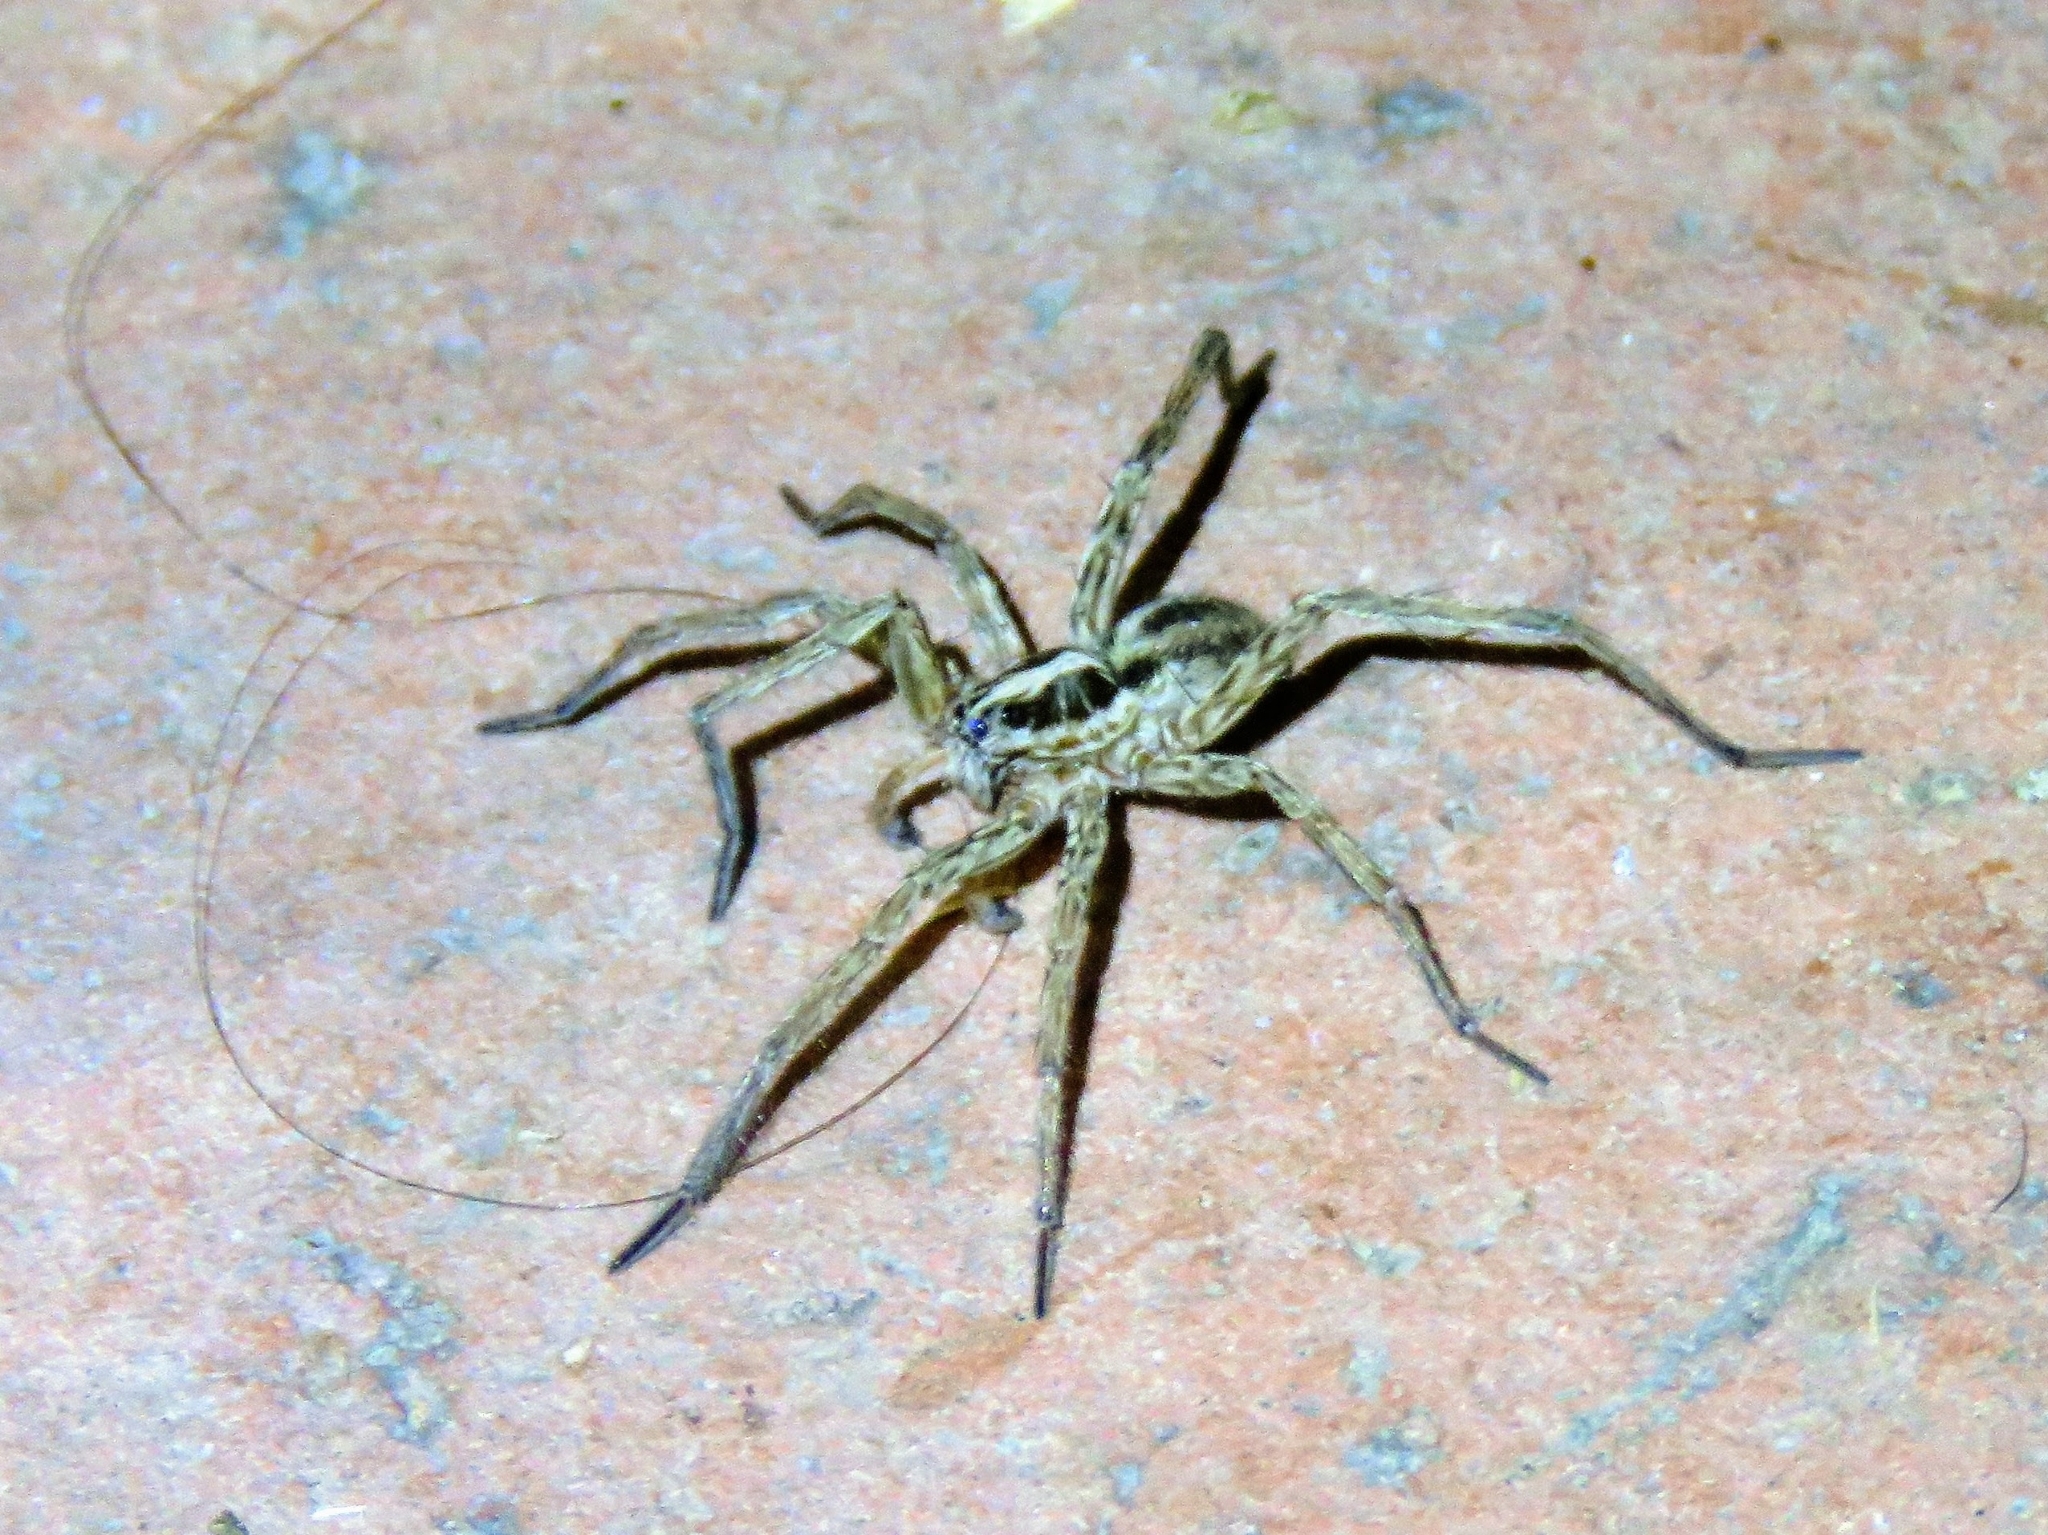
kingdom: Animalia
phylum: Arthropoda
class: Arachnida
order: Araneae
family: Lycosidae
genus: Hogna
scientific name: Hogna radiata
